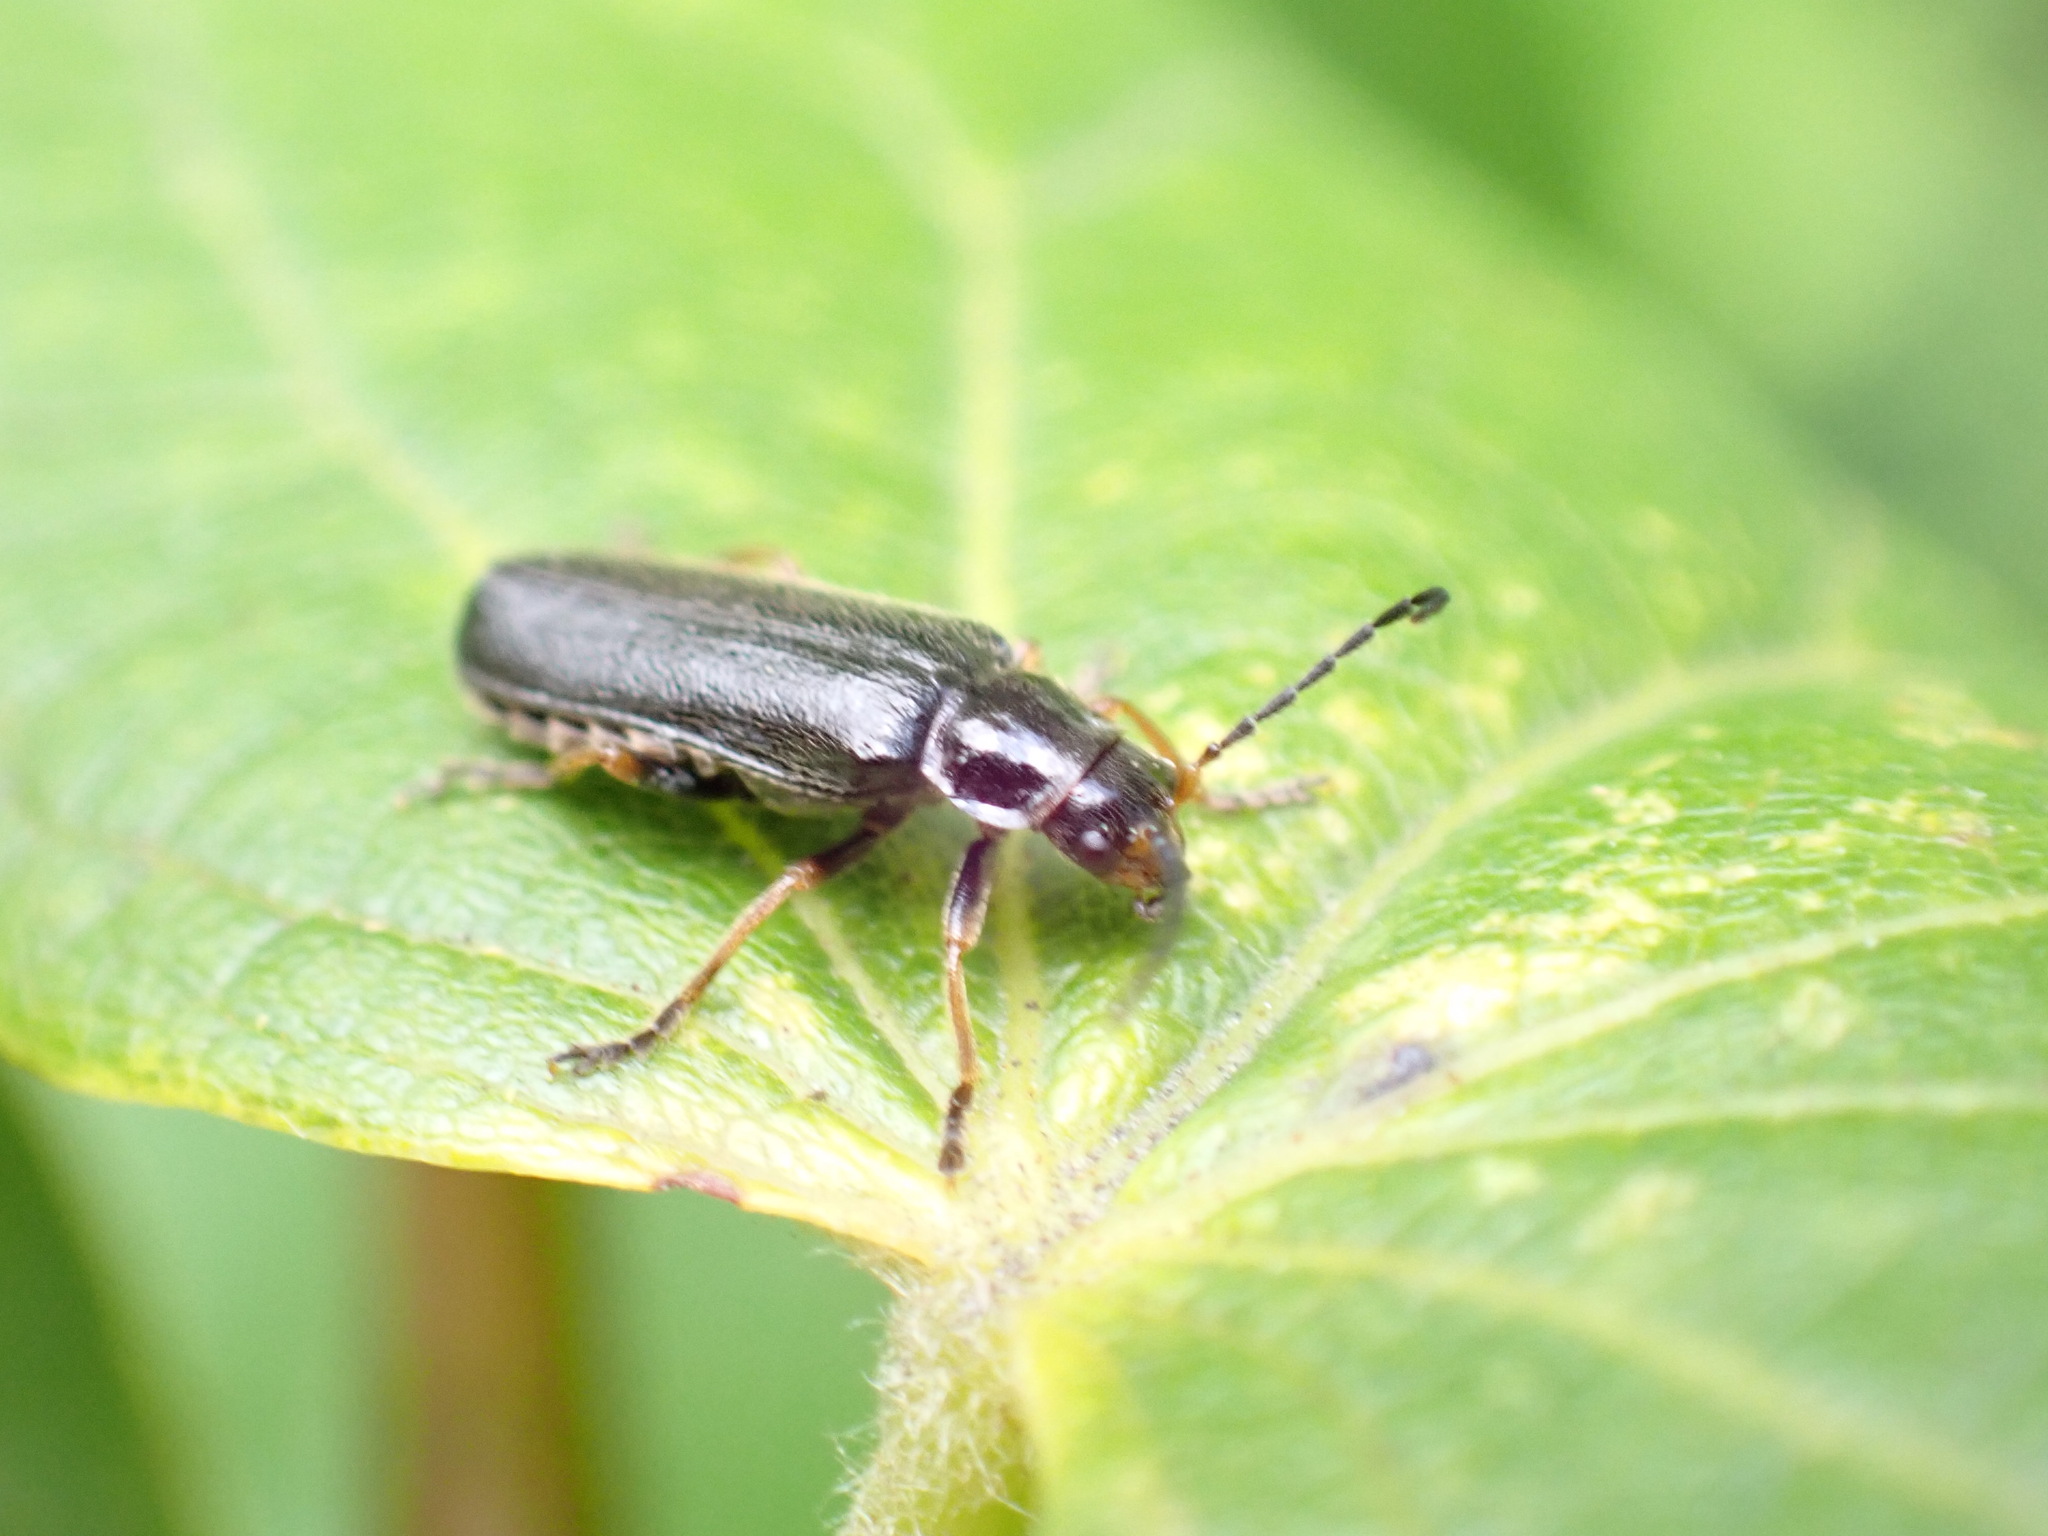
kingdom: Animalia
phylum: Arthropoda
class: Insecta
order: Coleoptera
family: Cantharidae
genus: Cantharis
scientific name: Cantharis flavilabris
